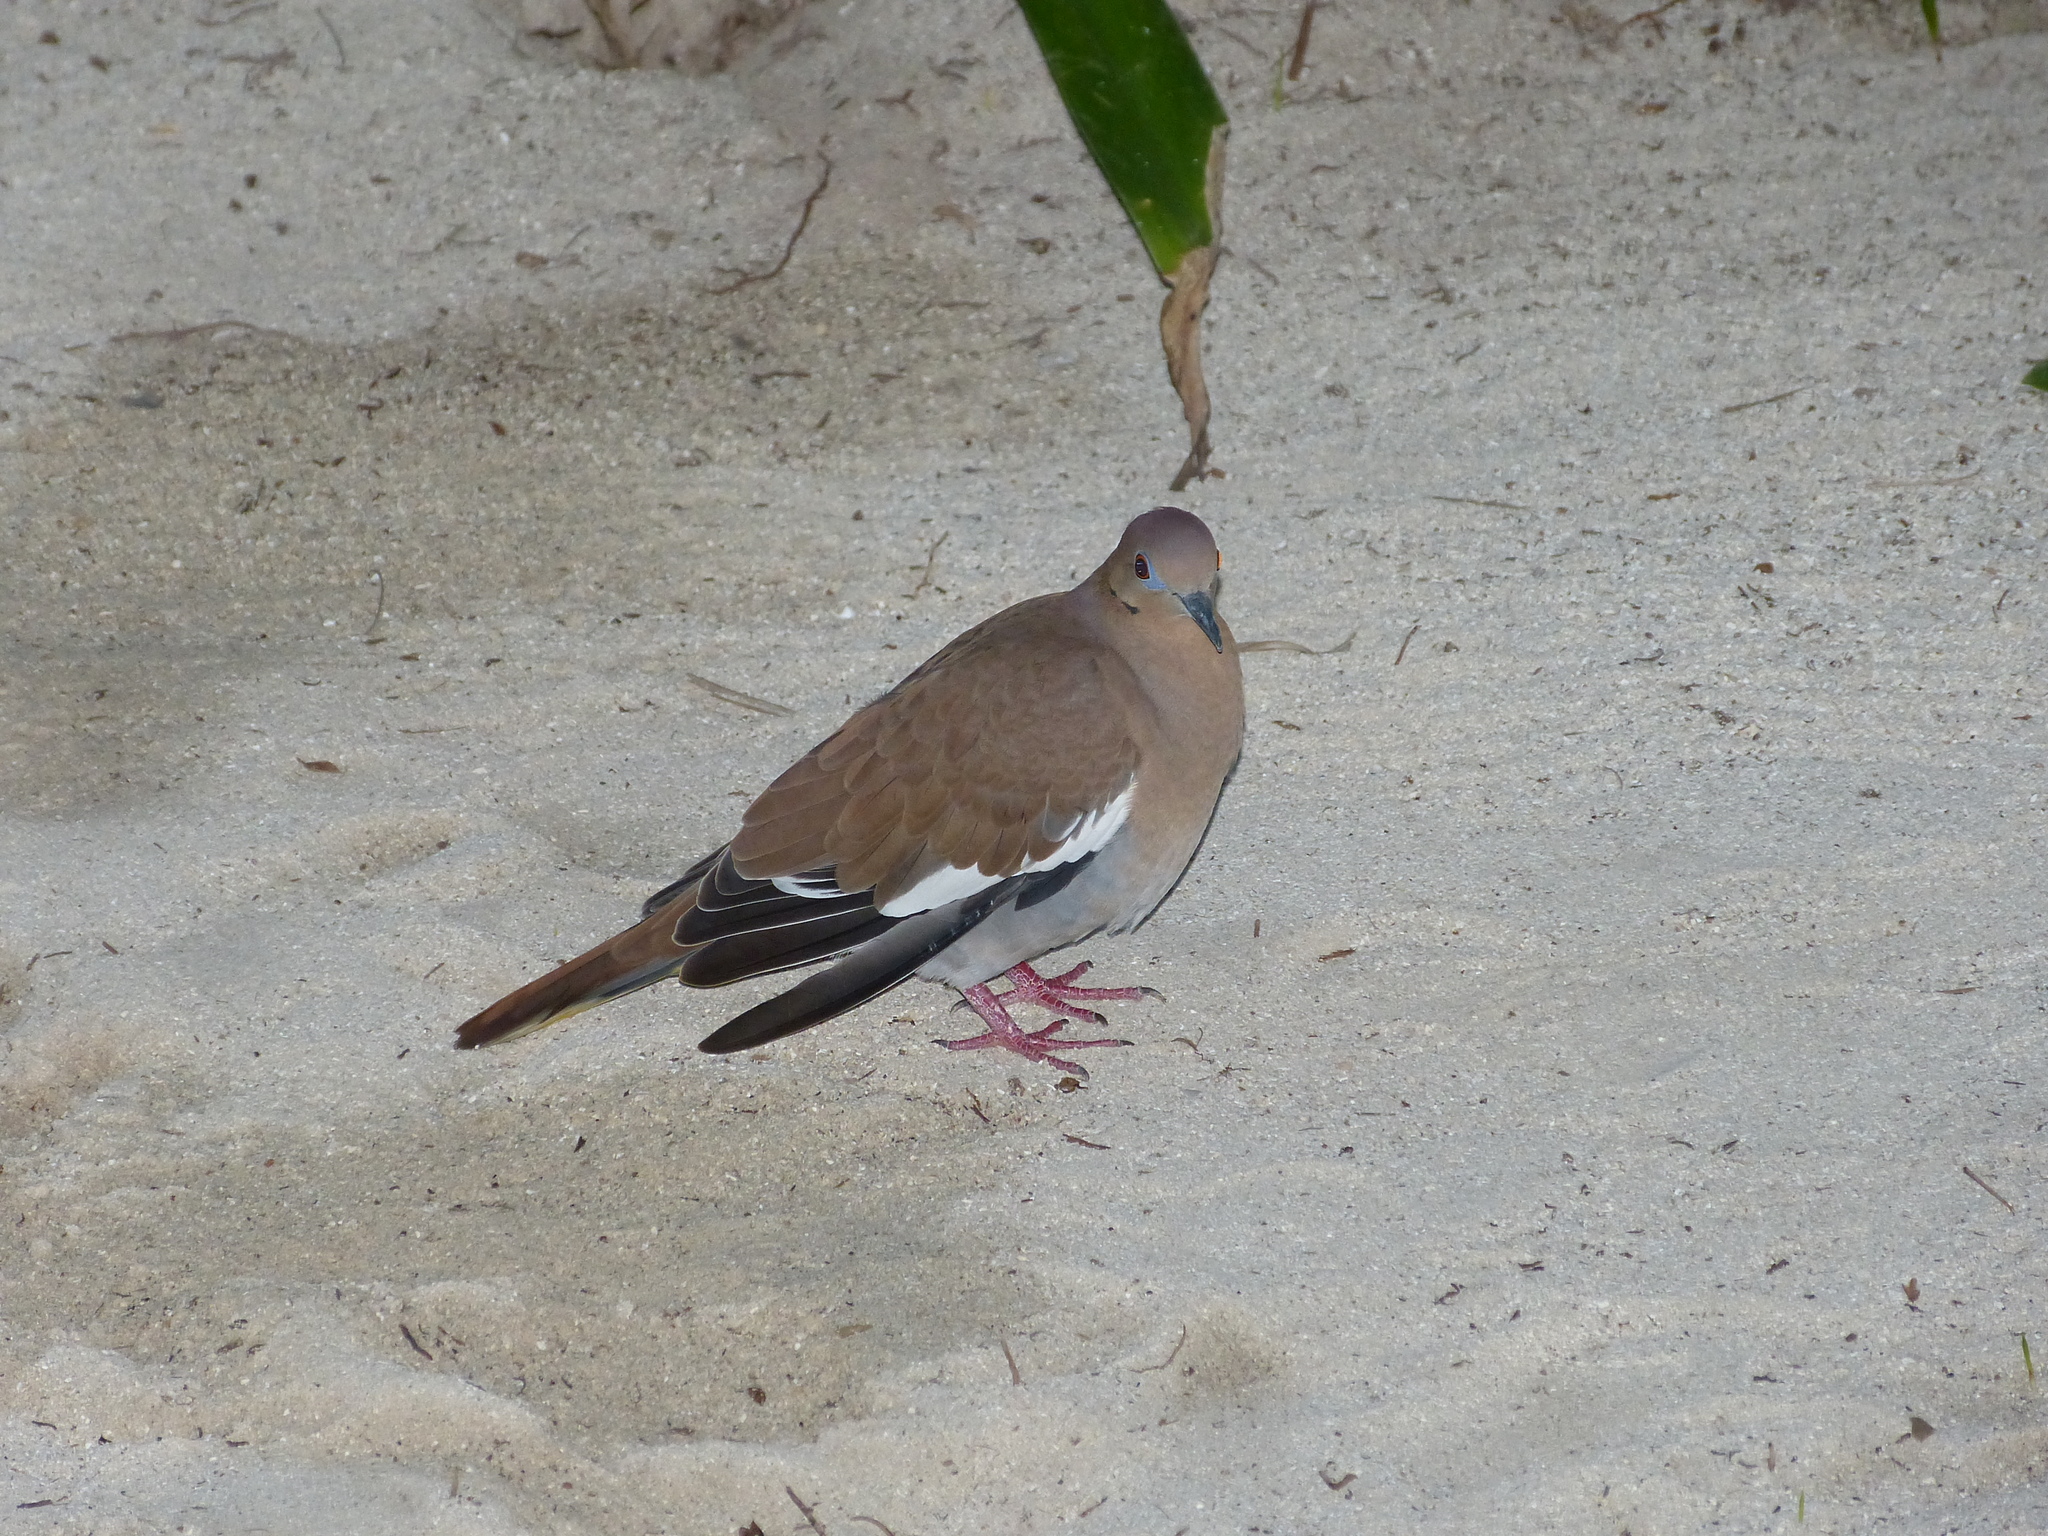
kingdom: Animalia
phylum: Chordata
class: Aves
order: Columbiformes
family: Columbidae
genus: Zenaida
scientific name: Zenaida asiatica
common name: White-winged dove
